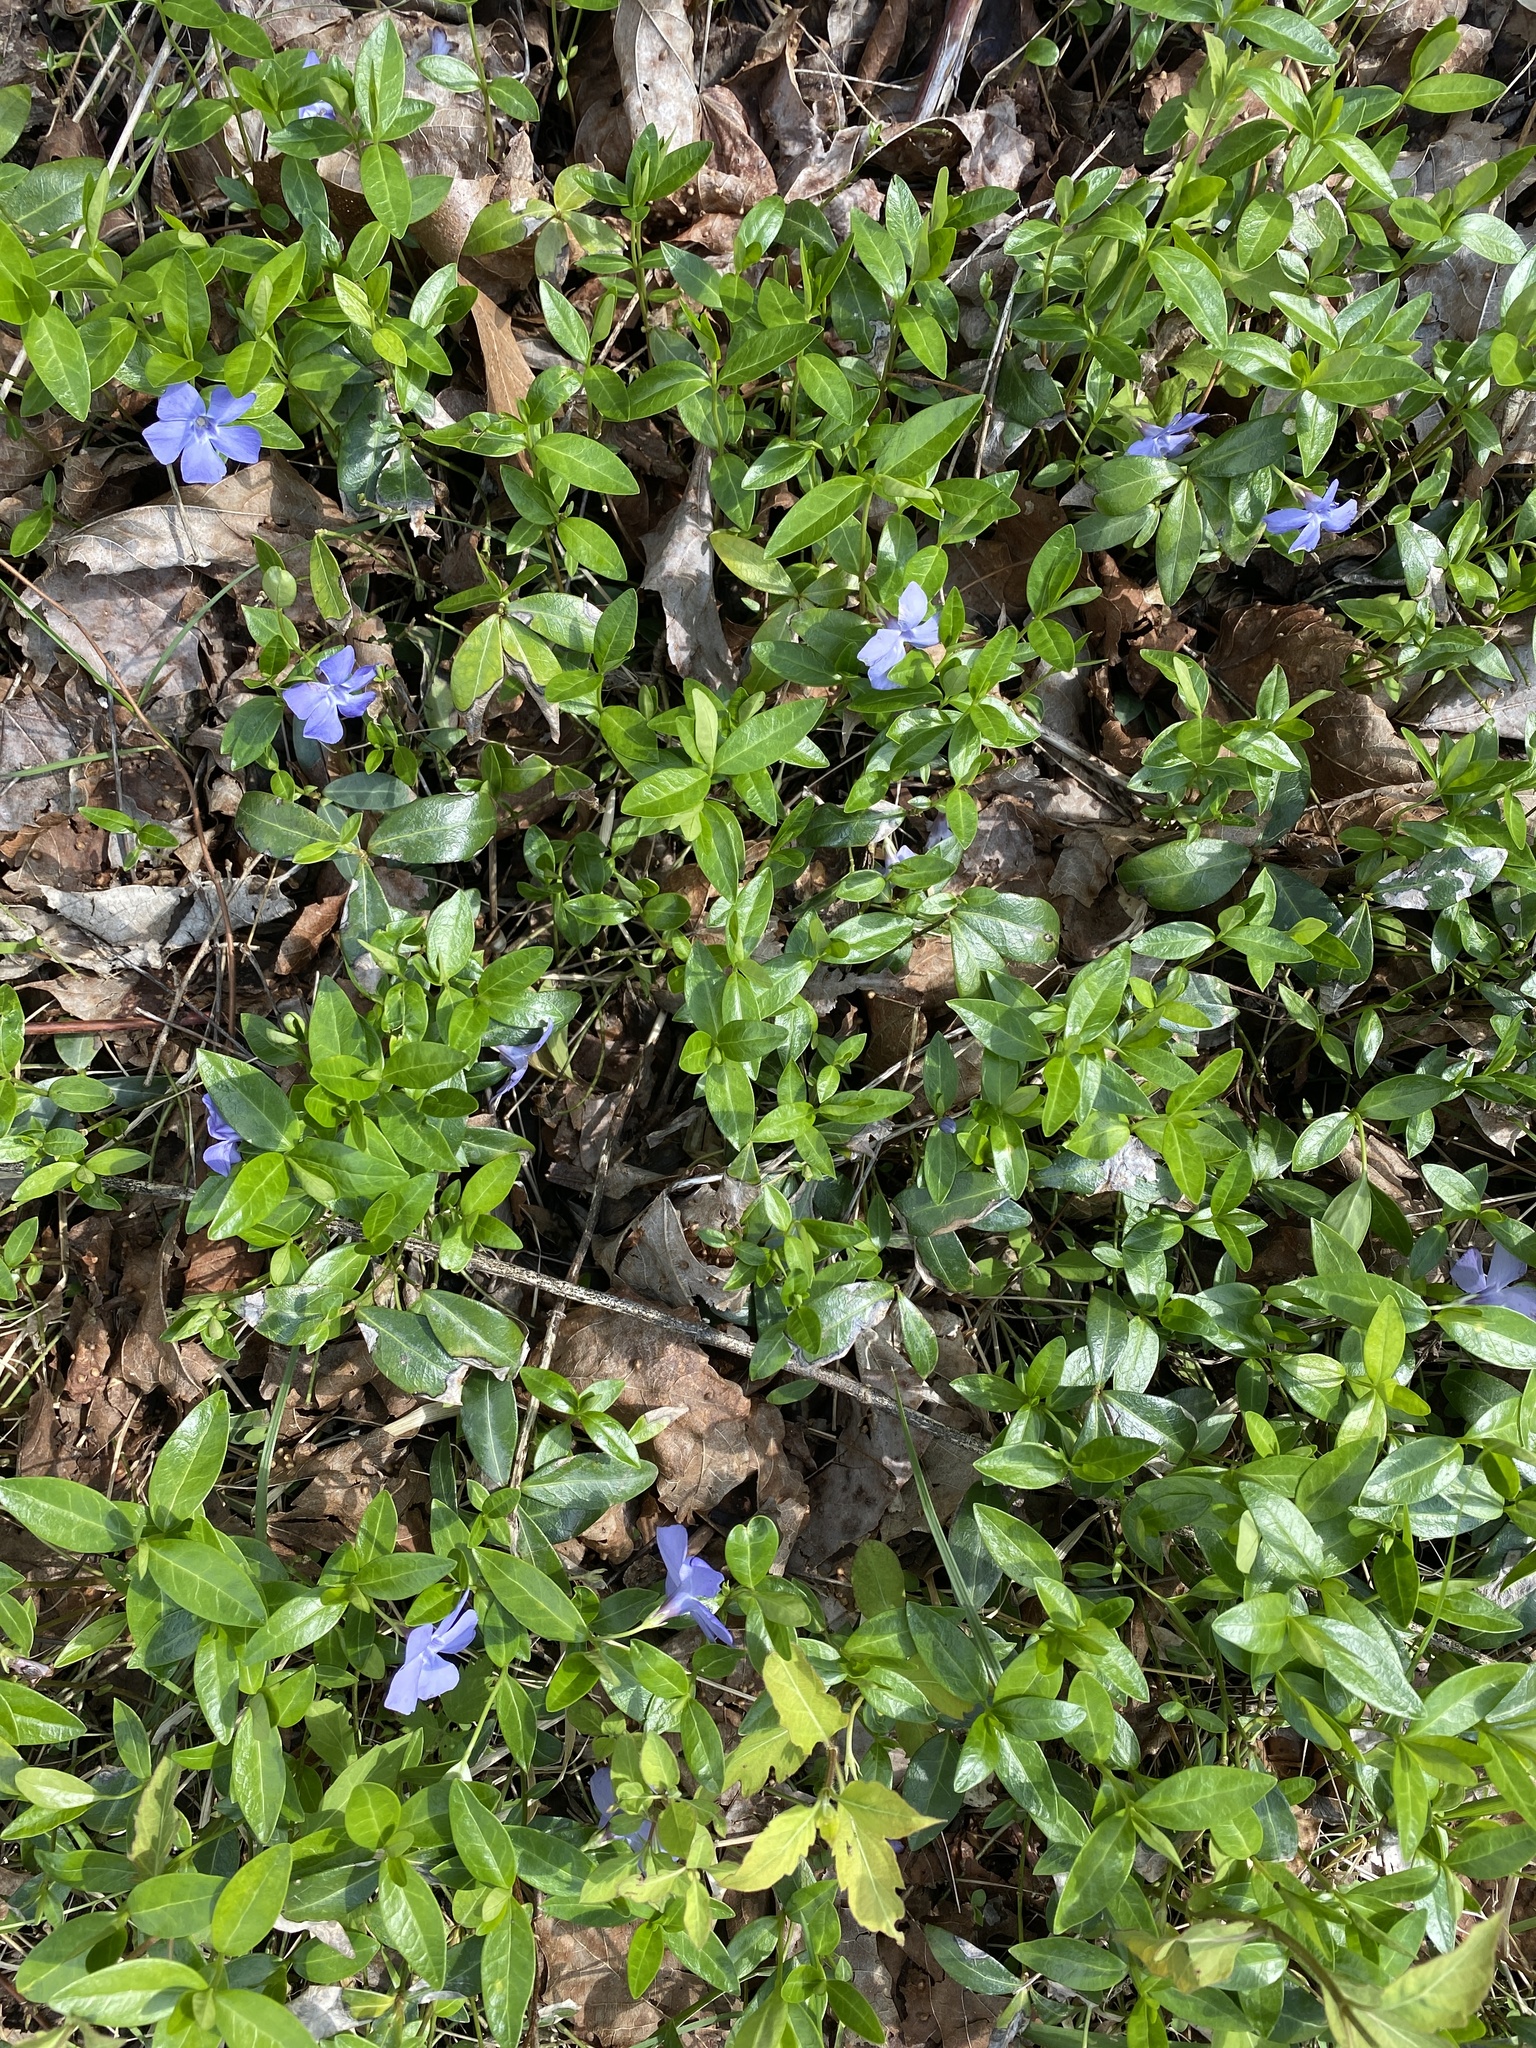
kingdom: Plantae
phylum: Tracheophyta
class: Magnoliopsida
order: Gentianales
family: Apocynaceae
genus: Vinca
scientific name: Vinca minor
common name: Lesser periwinkle
